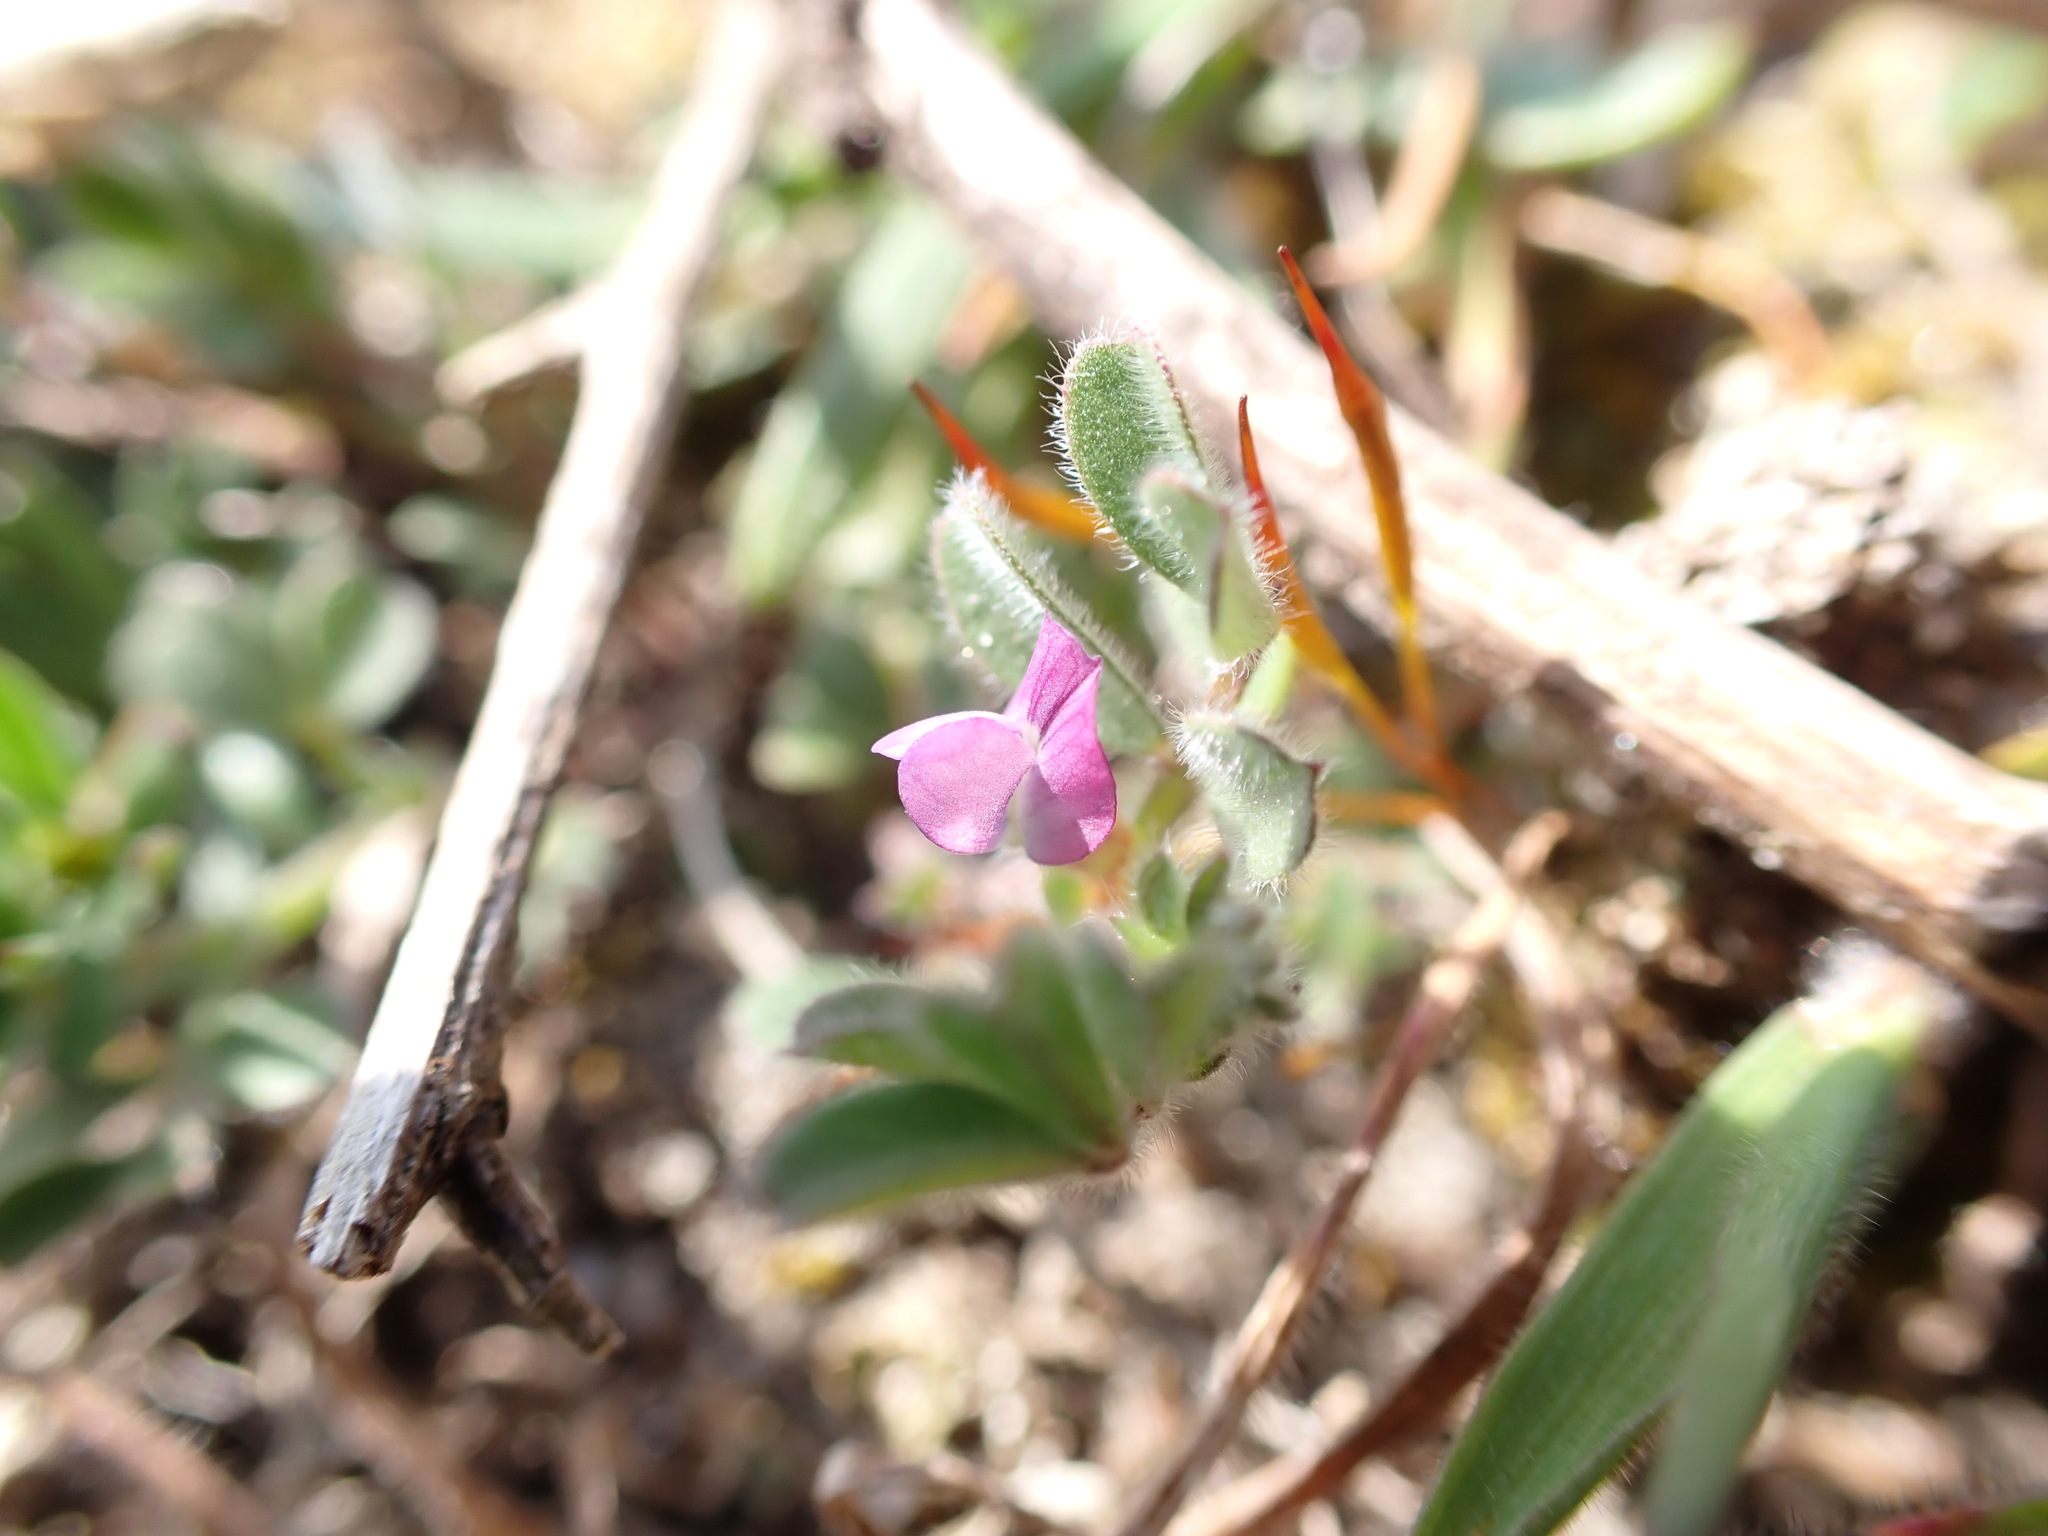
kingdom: Plantae
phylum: Tracheophyta
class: Magnoliopsida
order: Fabales
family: Fabaceae
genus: Vicia
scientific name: Vicia lathyroides
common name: Spring vetch
